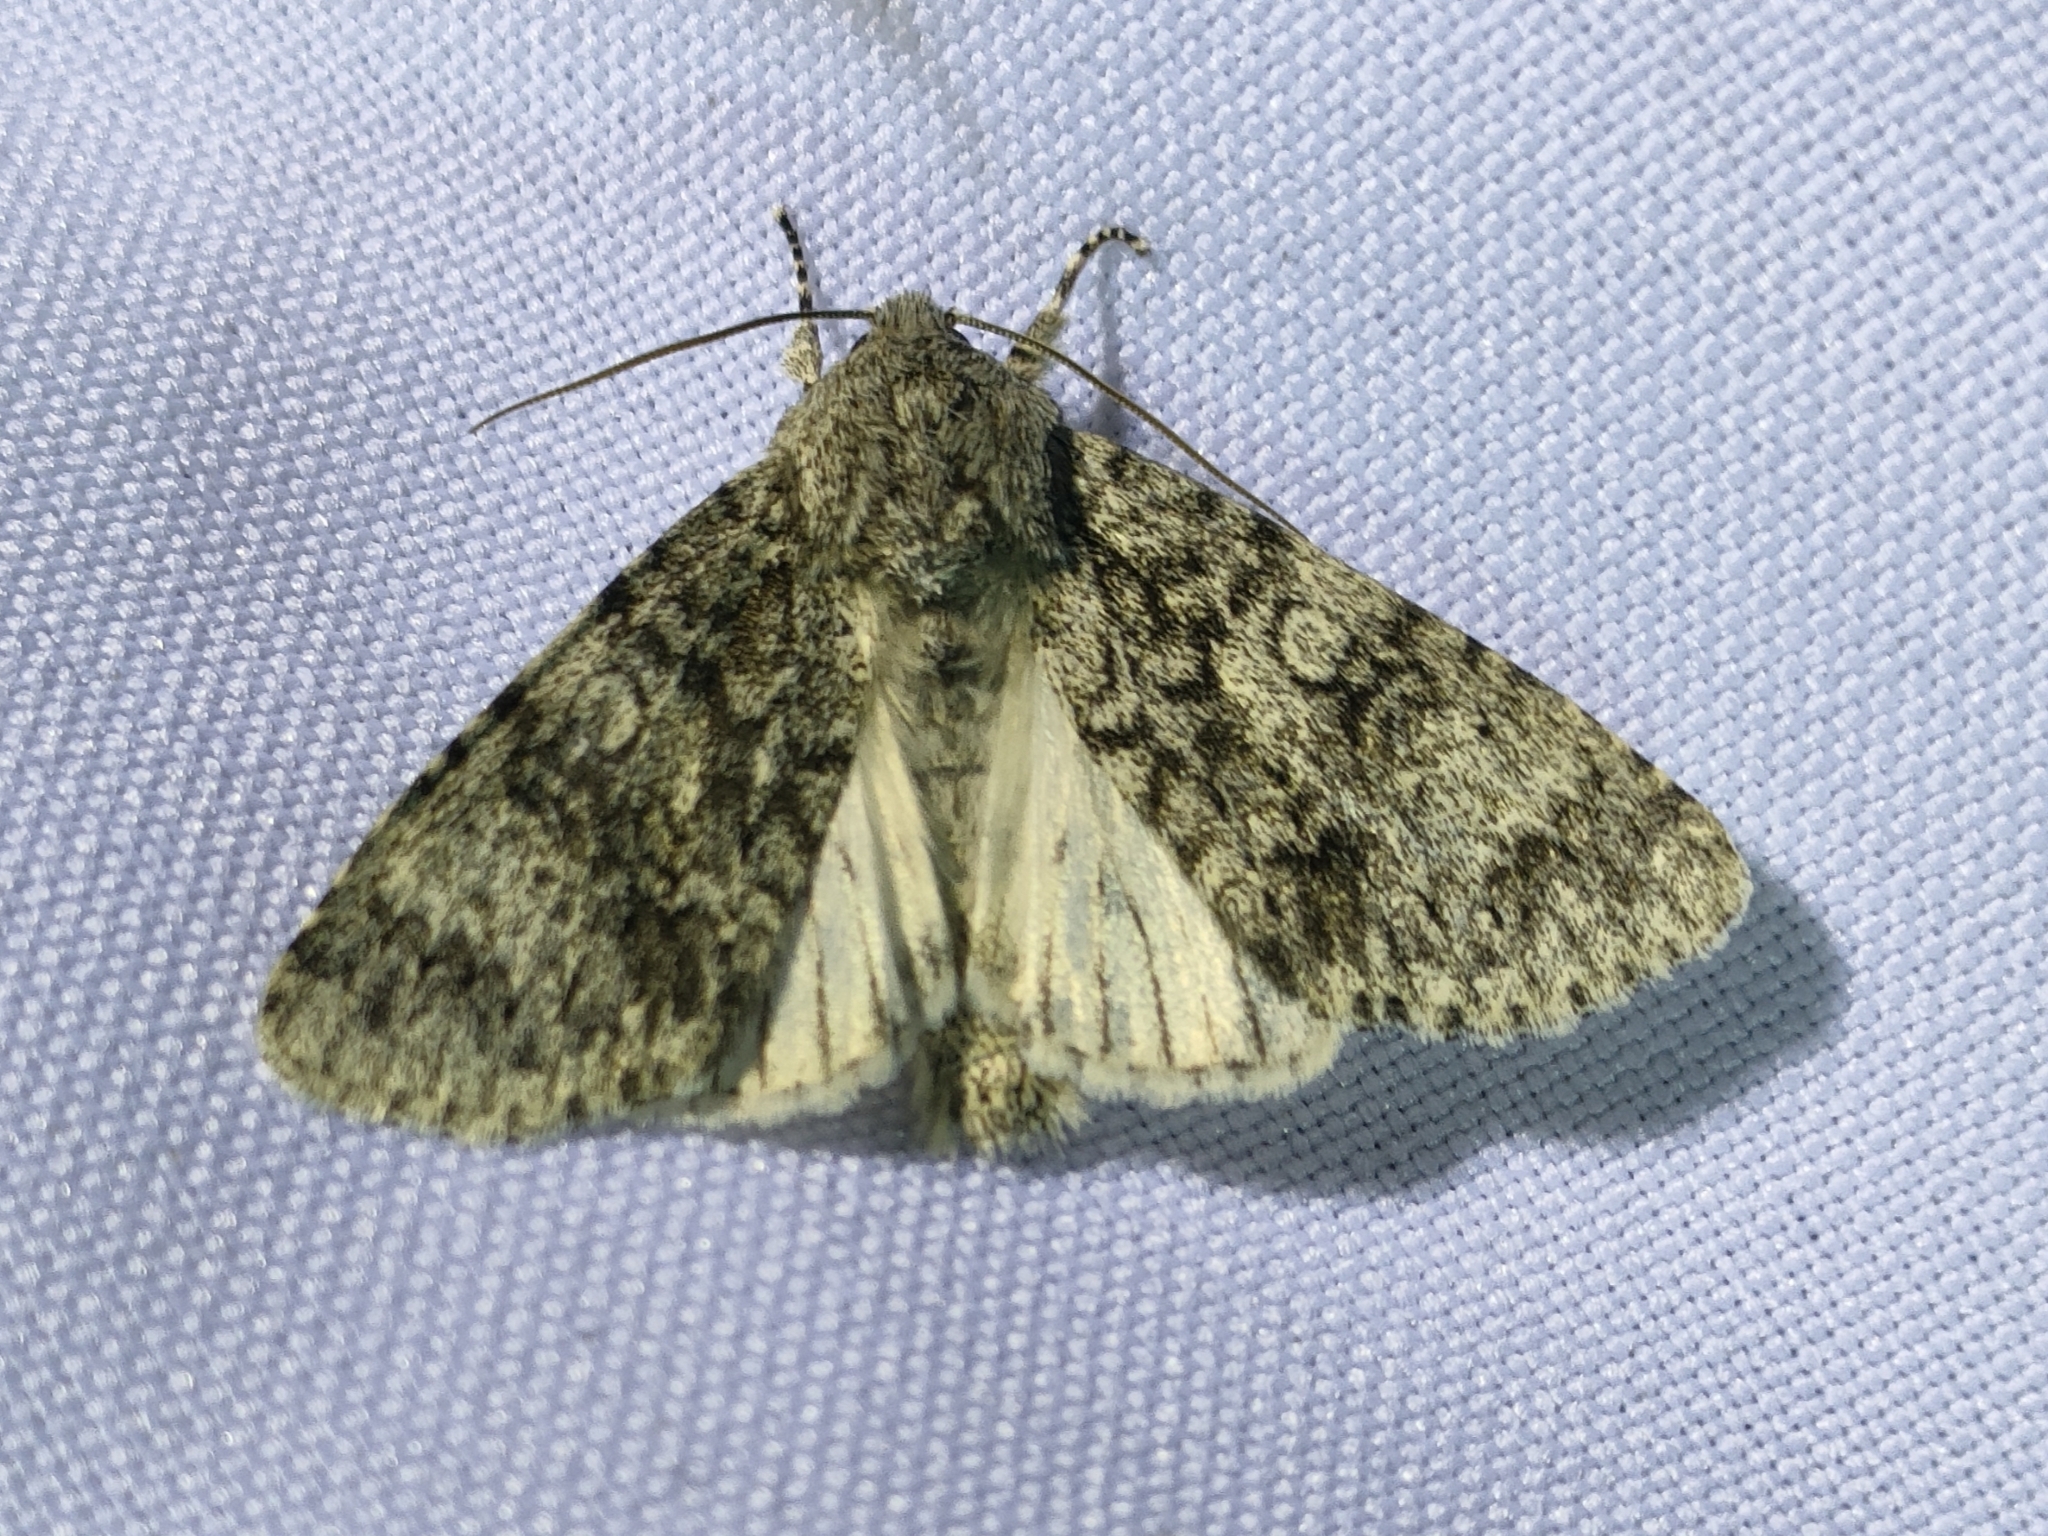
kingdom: Animalia
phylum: Arthropoda
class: Insecta
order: Lepidoptera
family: Noctuidae
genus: Acronicta
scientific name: Acronicta megacephala
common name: Poplar grey
